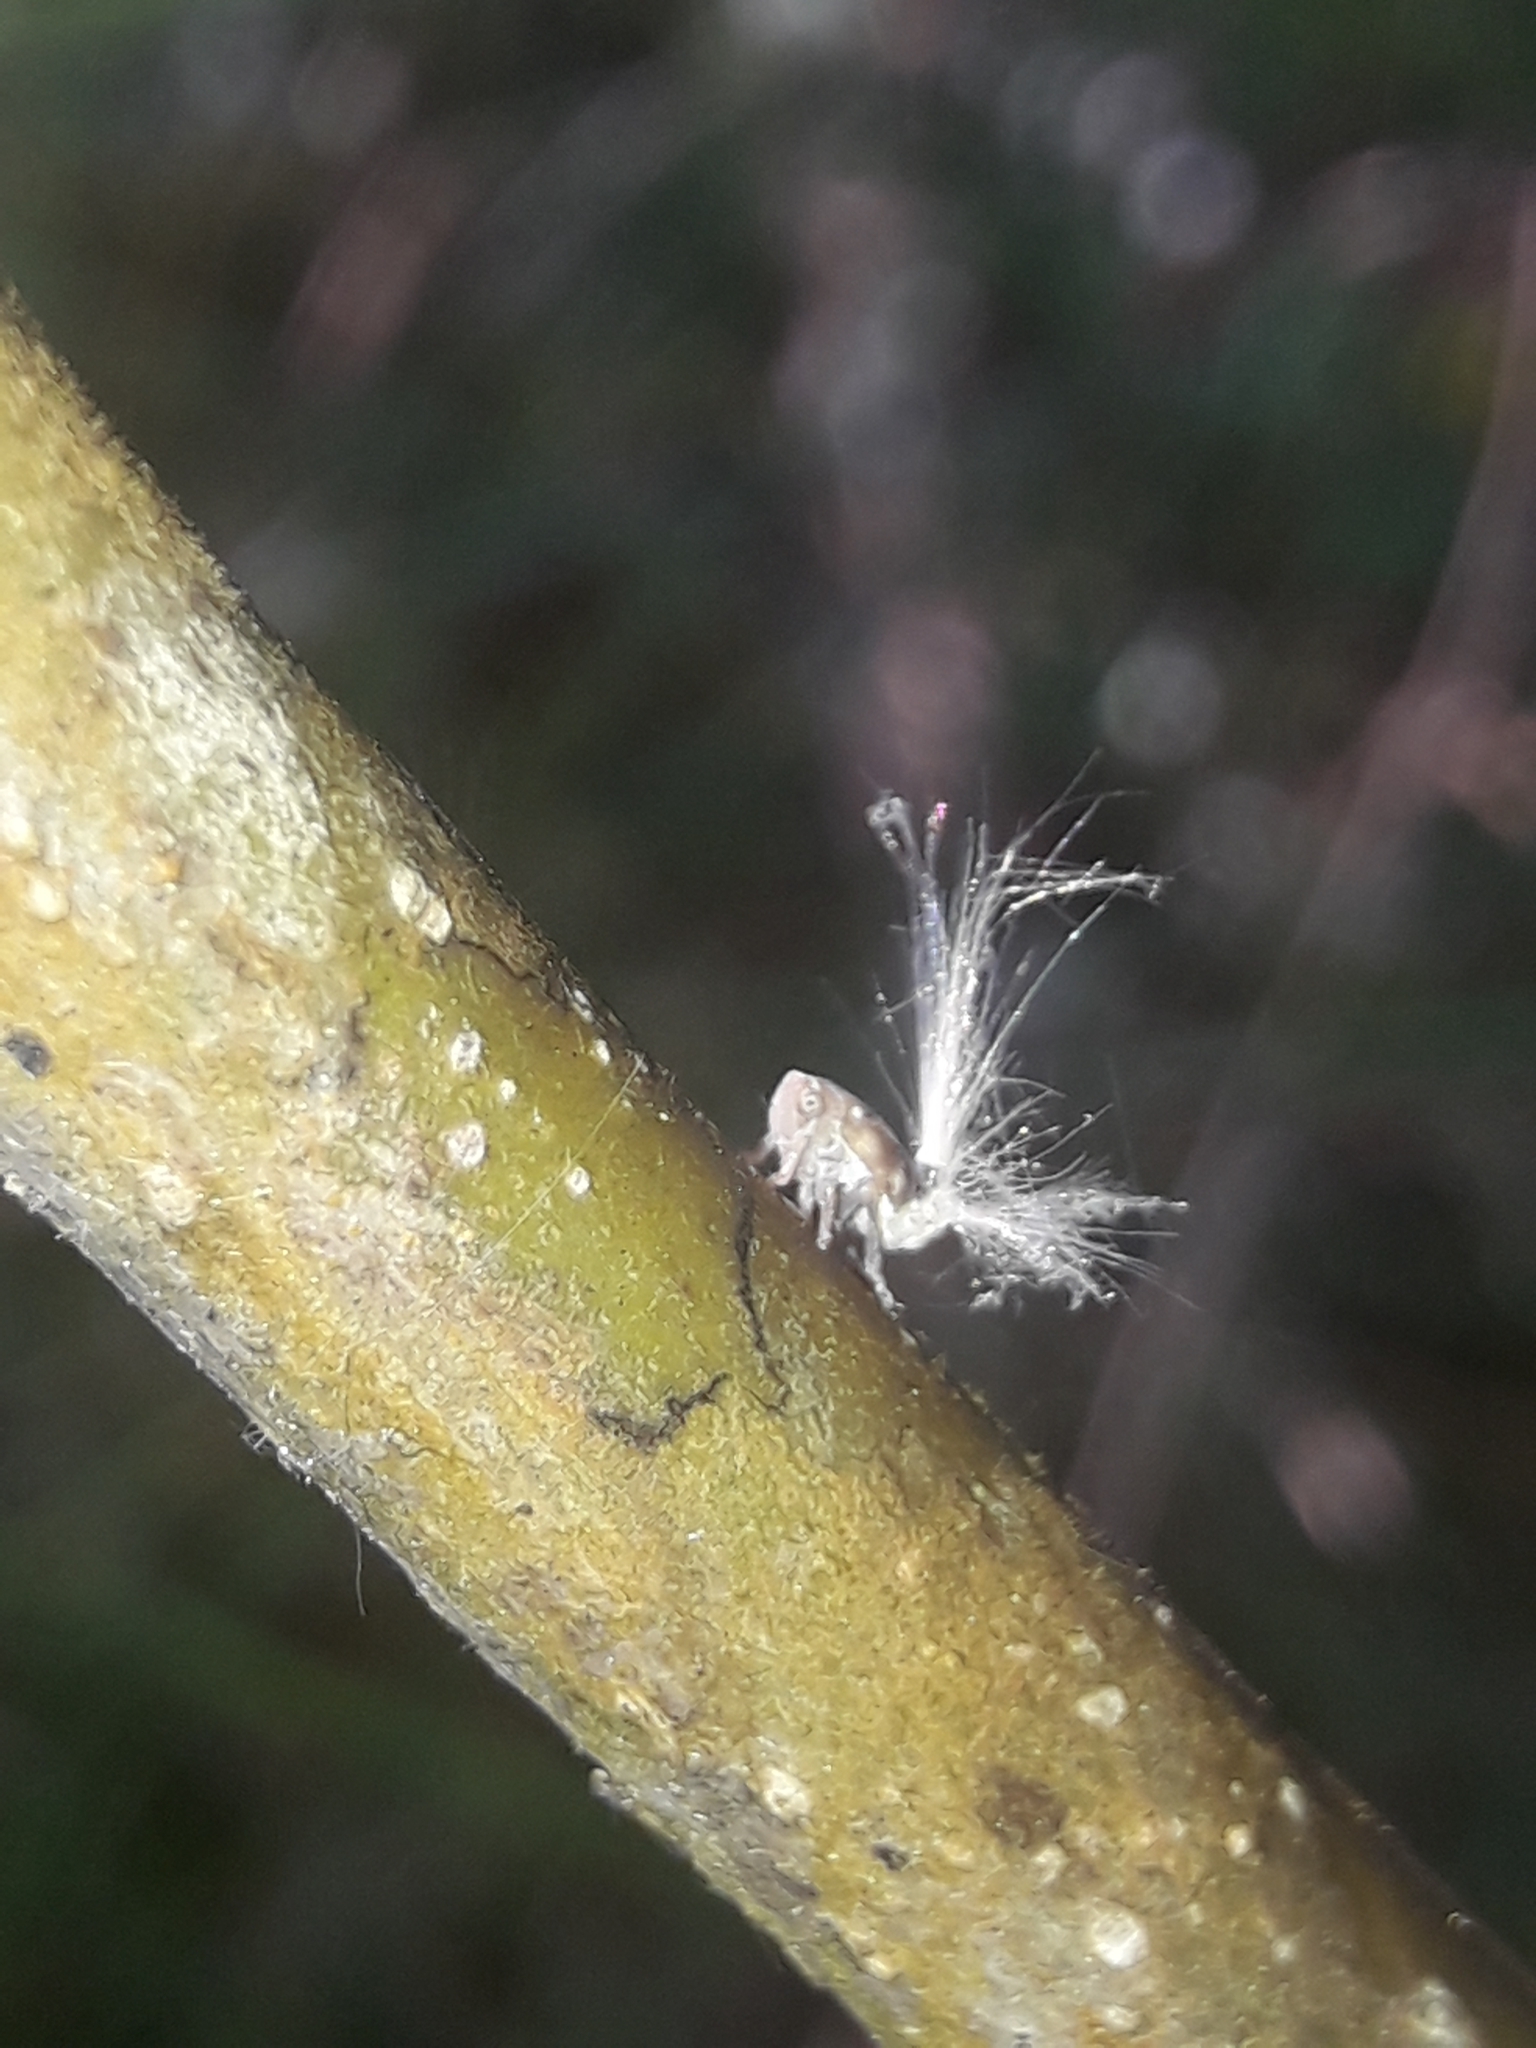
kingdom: Animalia
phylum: Arthropoda
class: Insecta
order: Hemiptera
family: Ricaniidae
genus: Scolypopa
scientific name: Scolypopa australis
